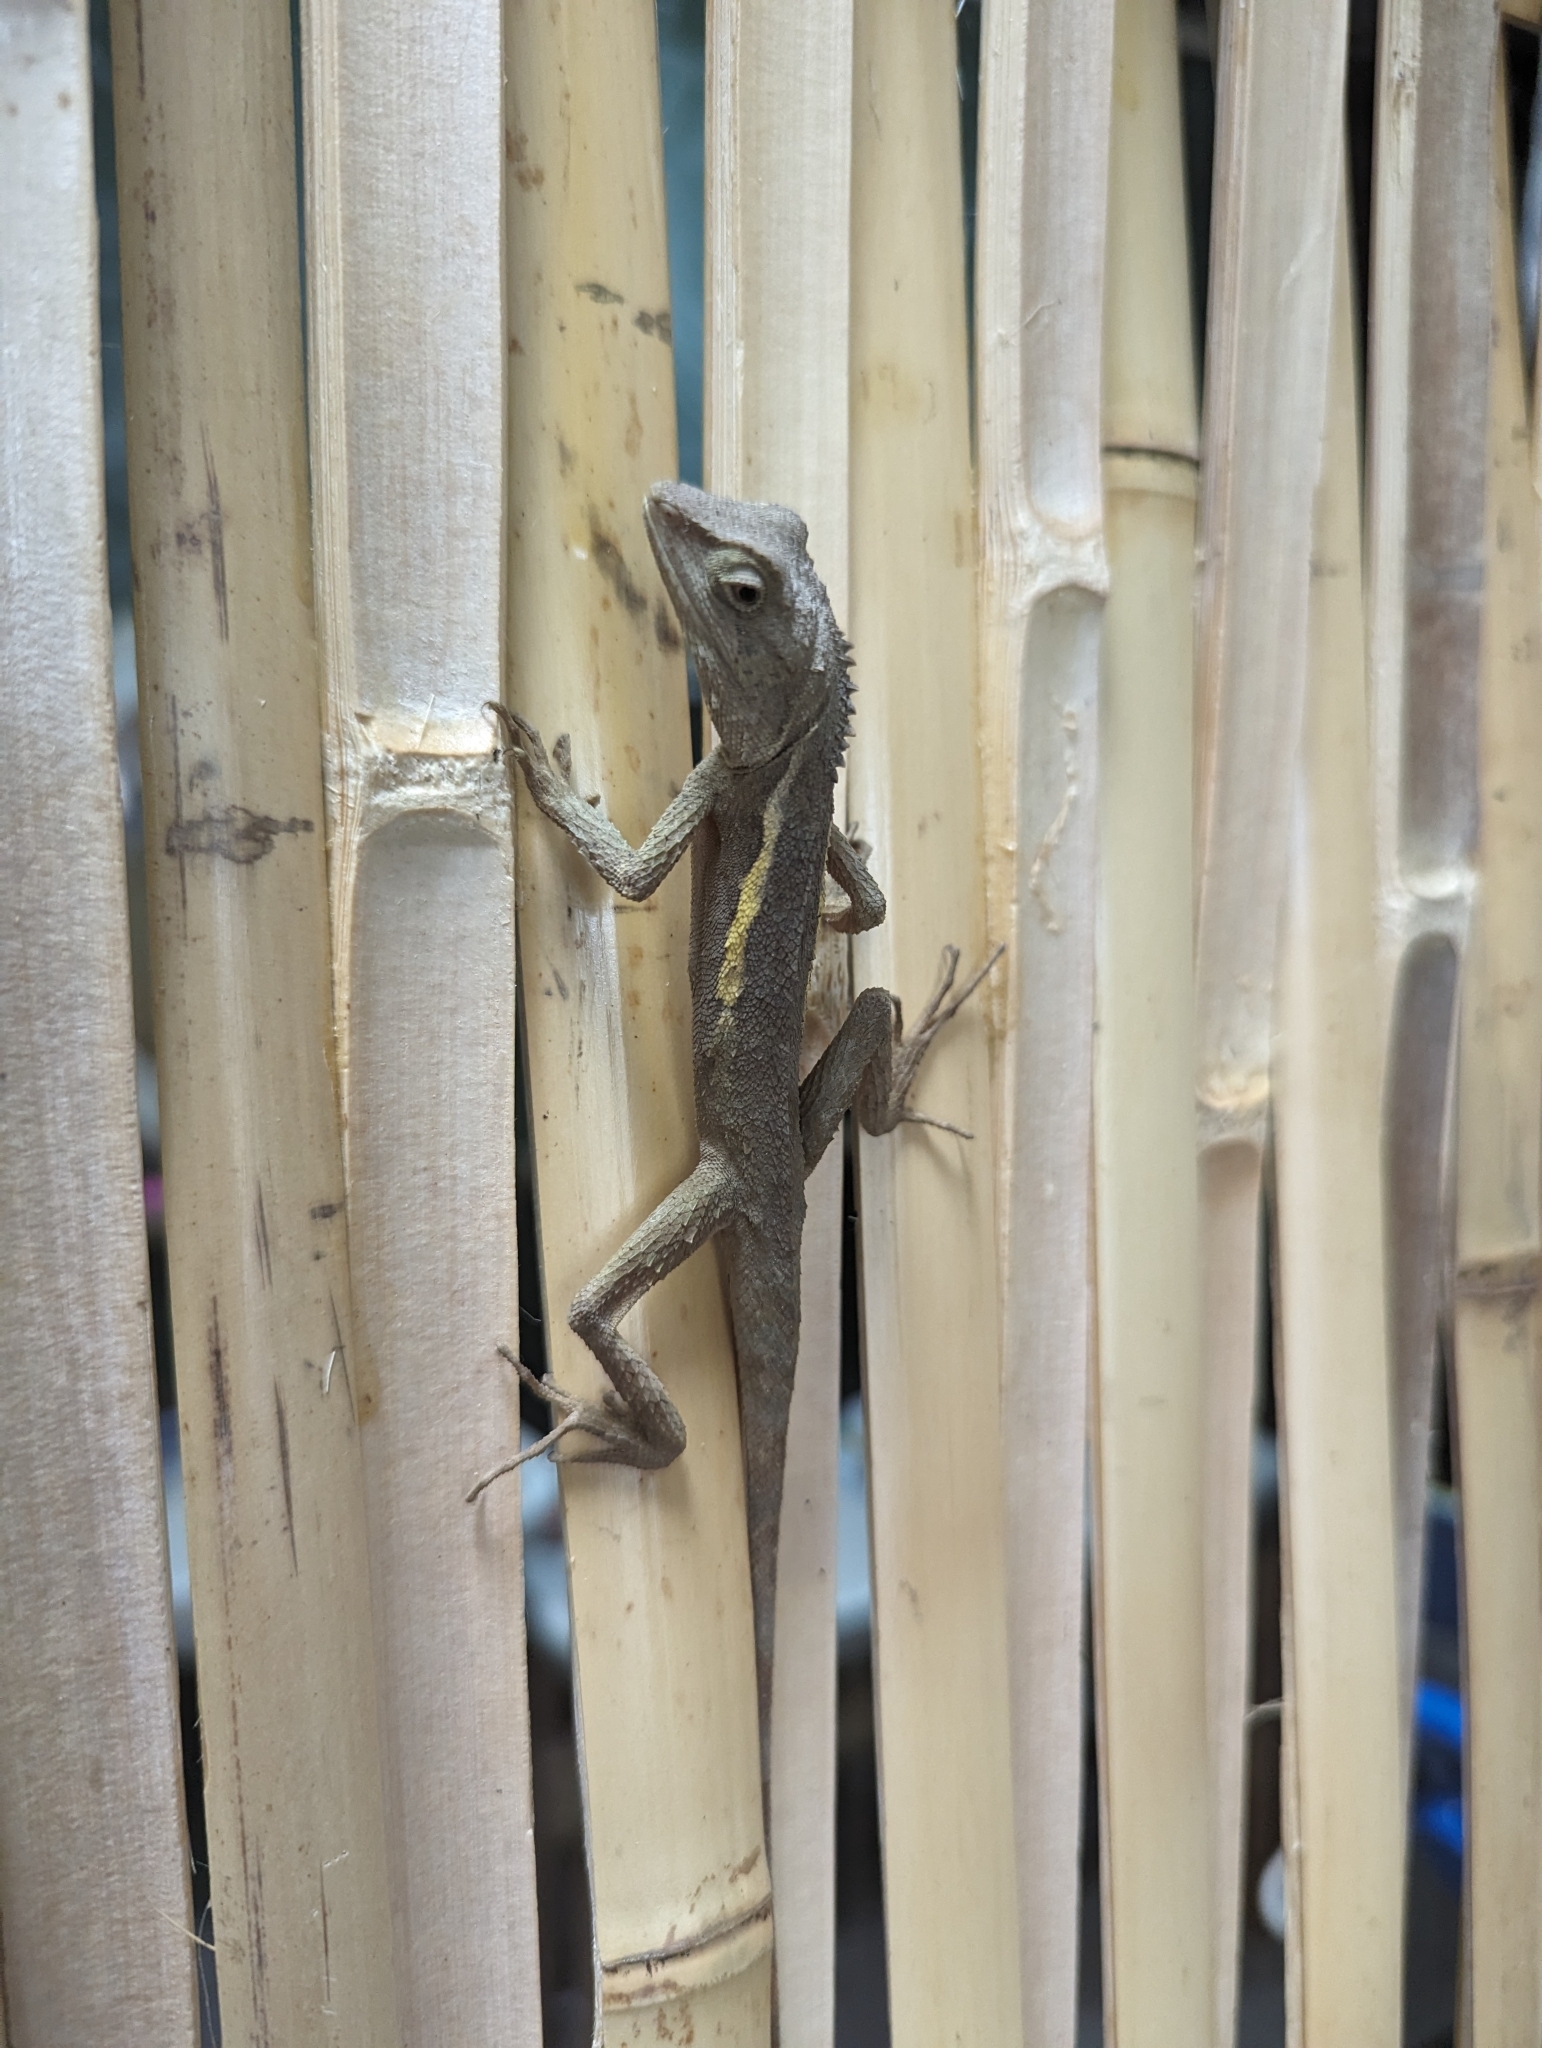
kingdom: Animalia
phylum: Chordata
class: Squamata
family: Agamidae
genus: Diploderma
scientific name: Diploderma swinhonis
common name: Taiwan japalure
